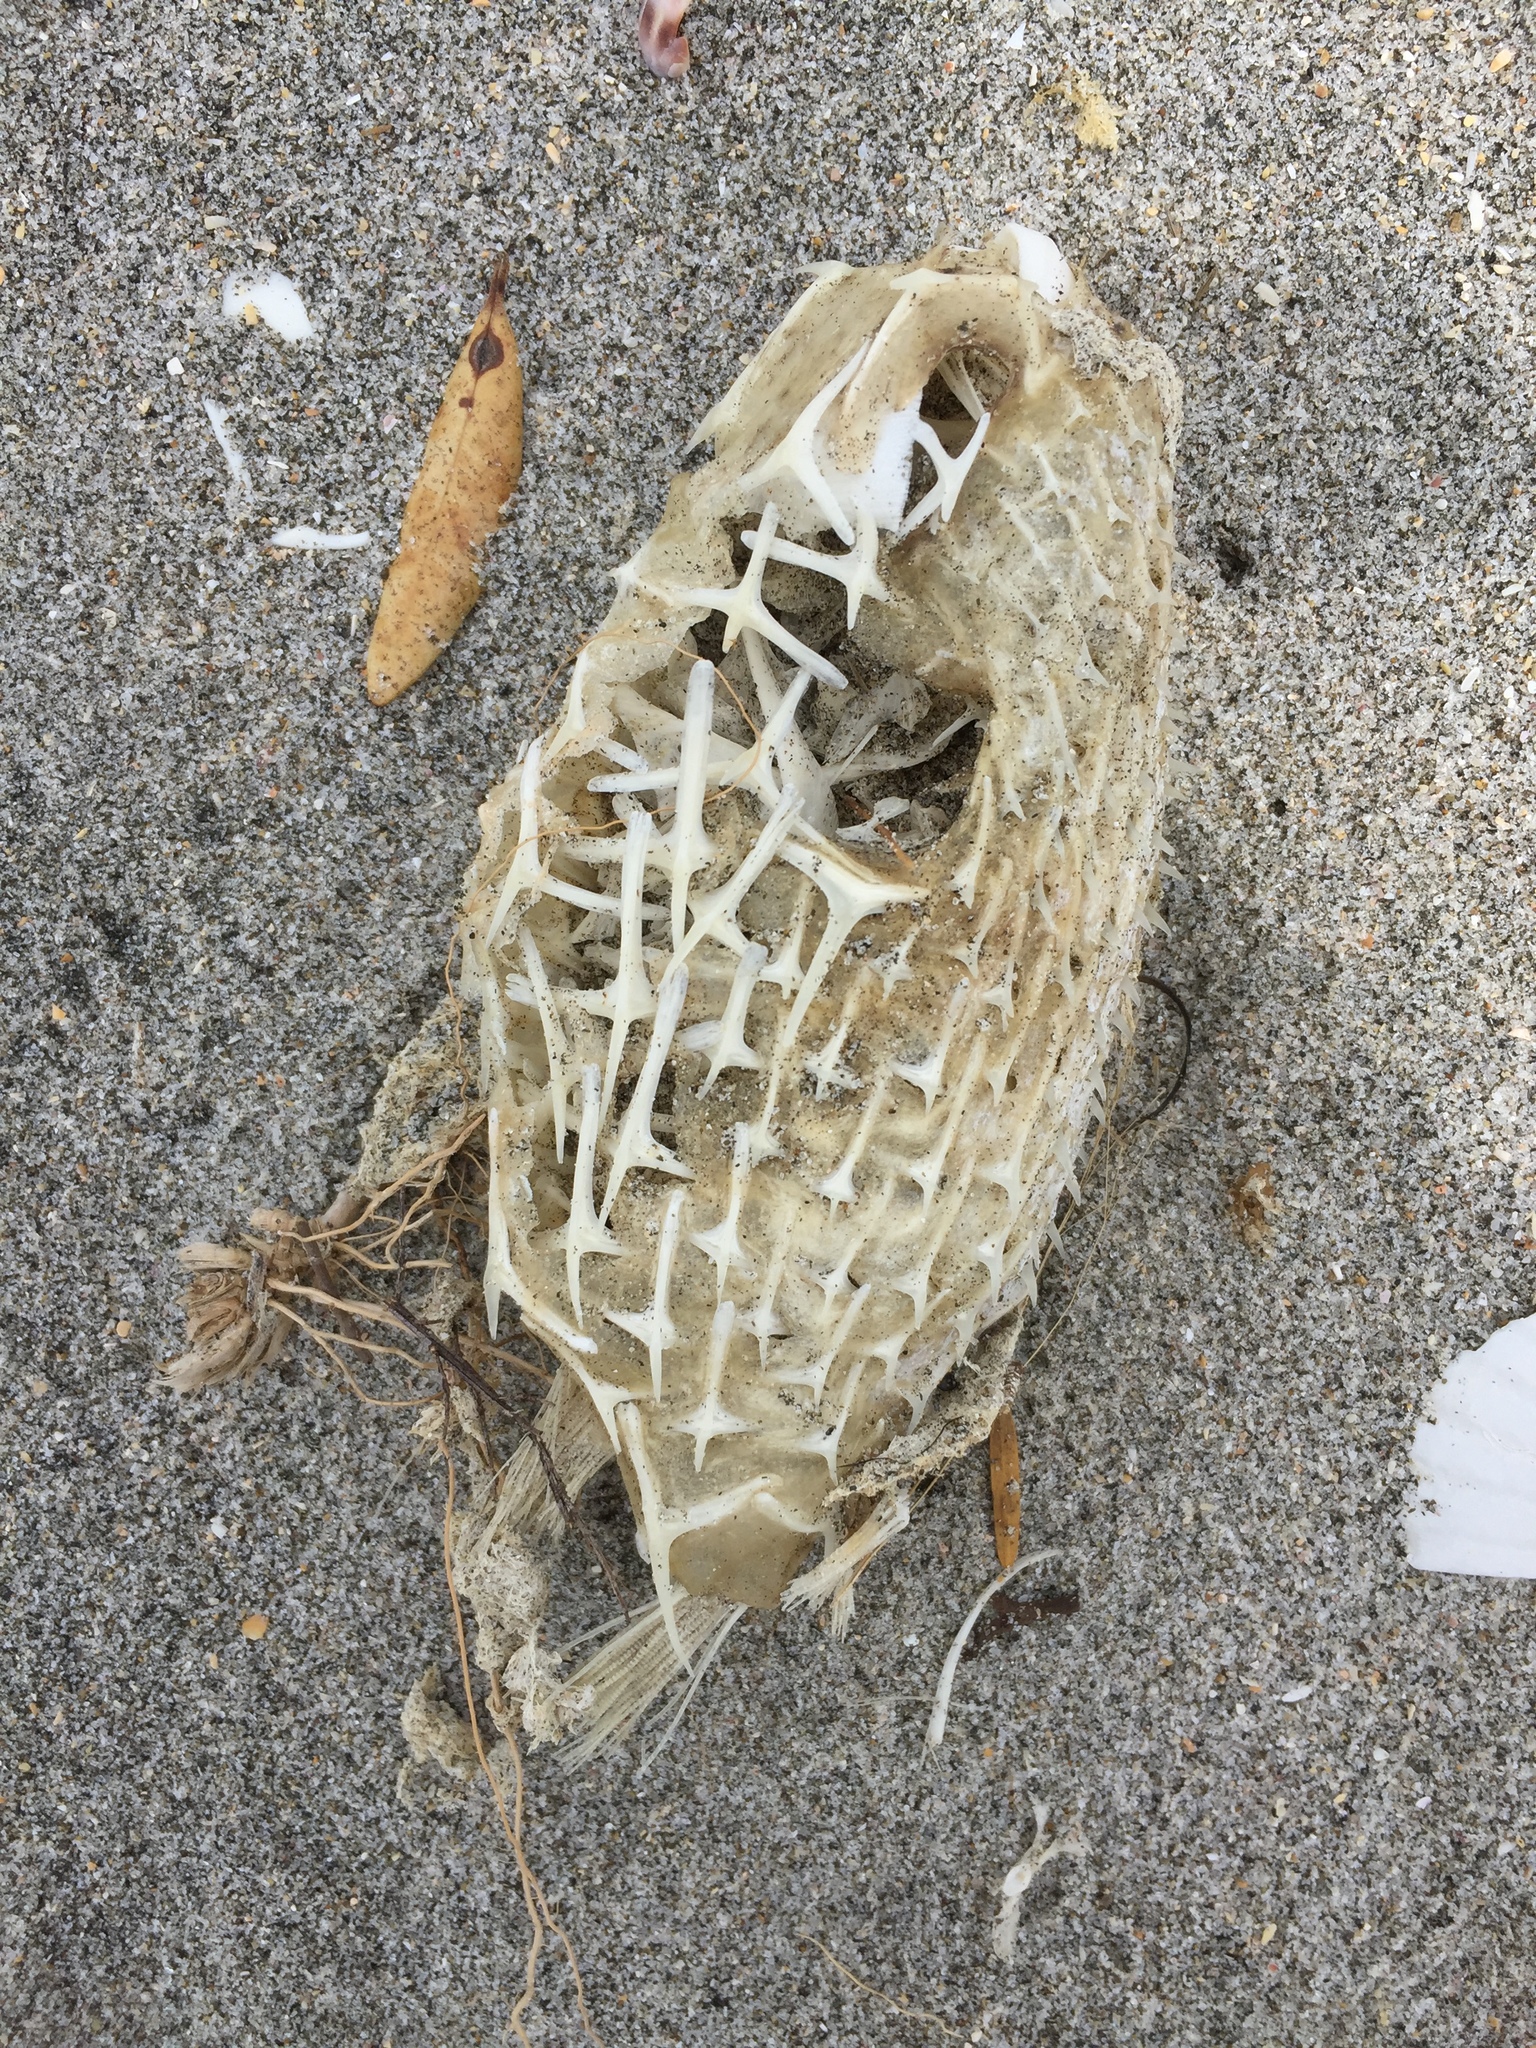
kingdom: Animalia
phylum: Chordata
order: Tetraodontiformes
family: Diodontidae
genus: Allomycterus
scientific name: Allomycterus pilatus
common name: No common name
